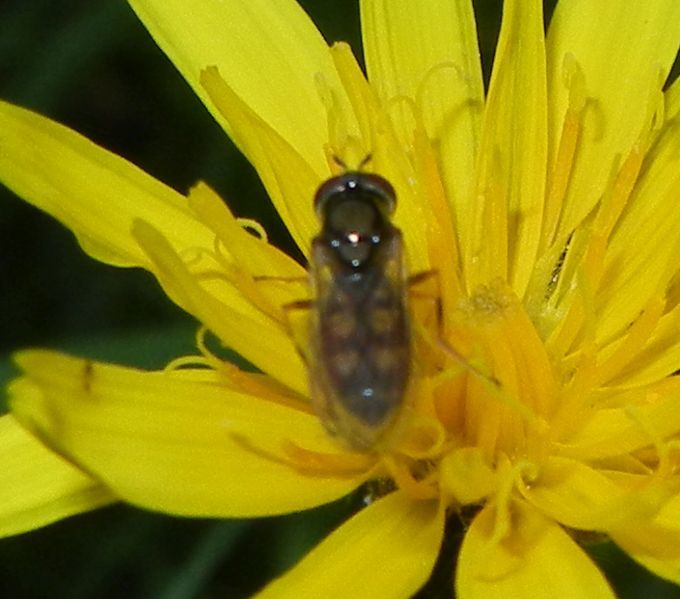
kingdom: Animalia
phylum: Arthropoda
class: Insecta
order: Diptera
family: Syrphidae
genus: Melanostoma
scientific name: Melanostoma
